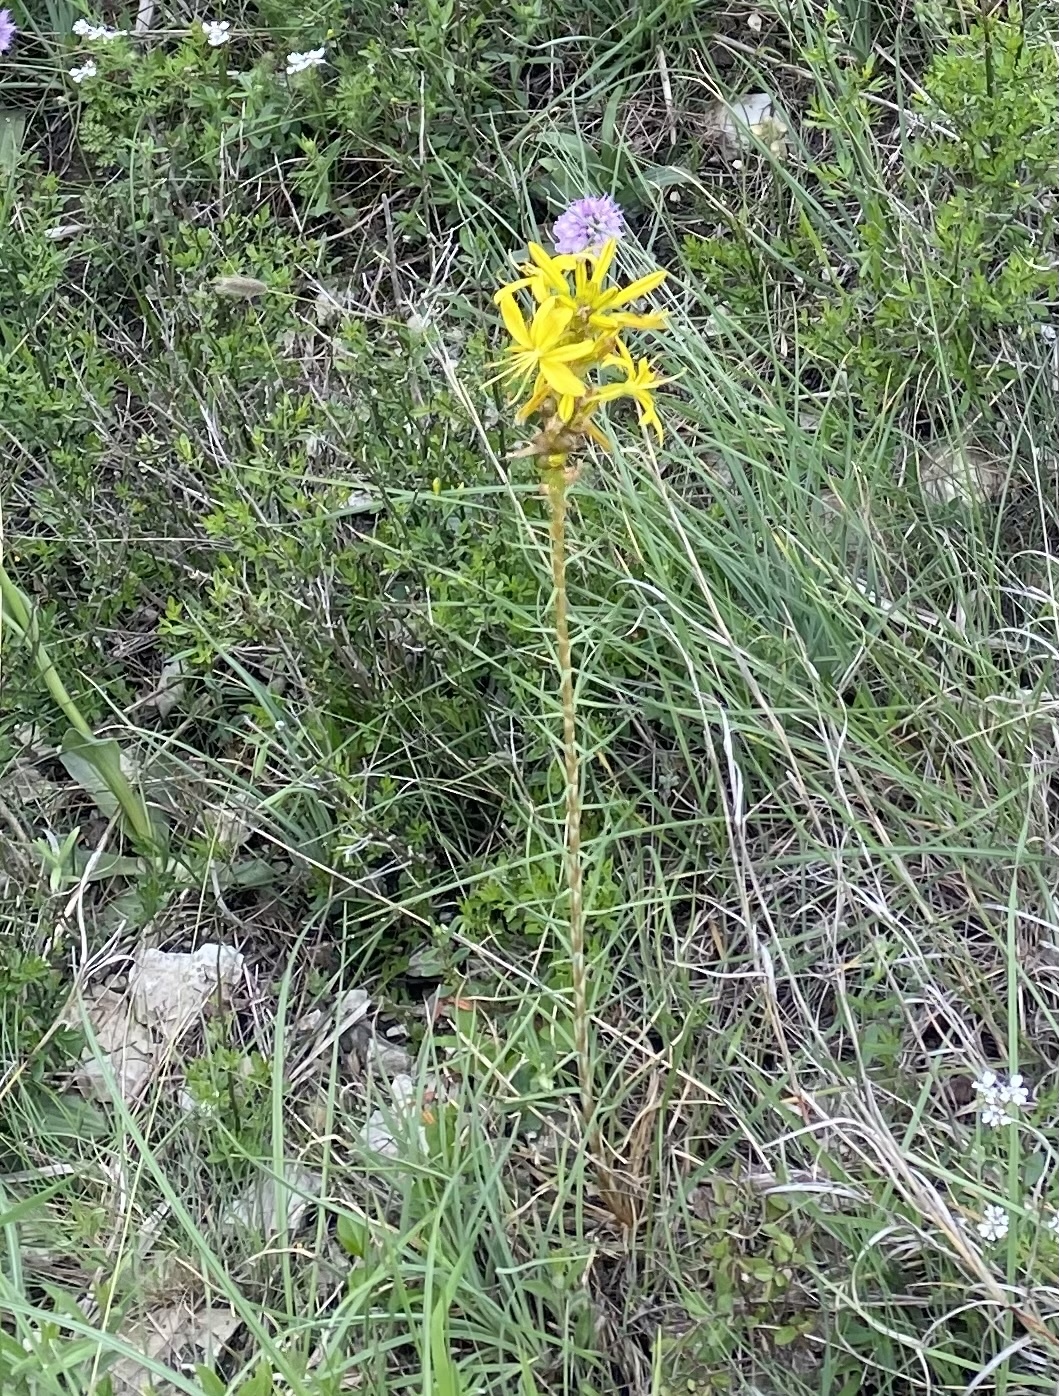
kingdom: Plantae
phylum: Tracheophyta
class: Liliopsida
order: Asparagales
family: Asphodelaceae
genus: Asphodeline
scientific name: Asphodeline lutea
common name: Yellow asphodel
